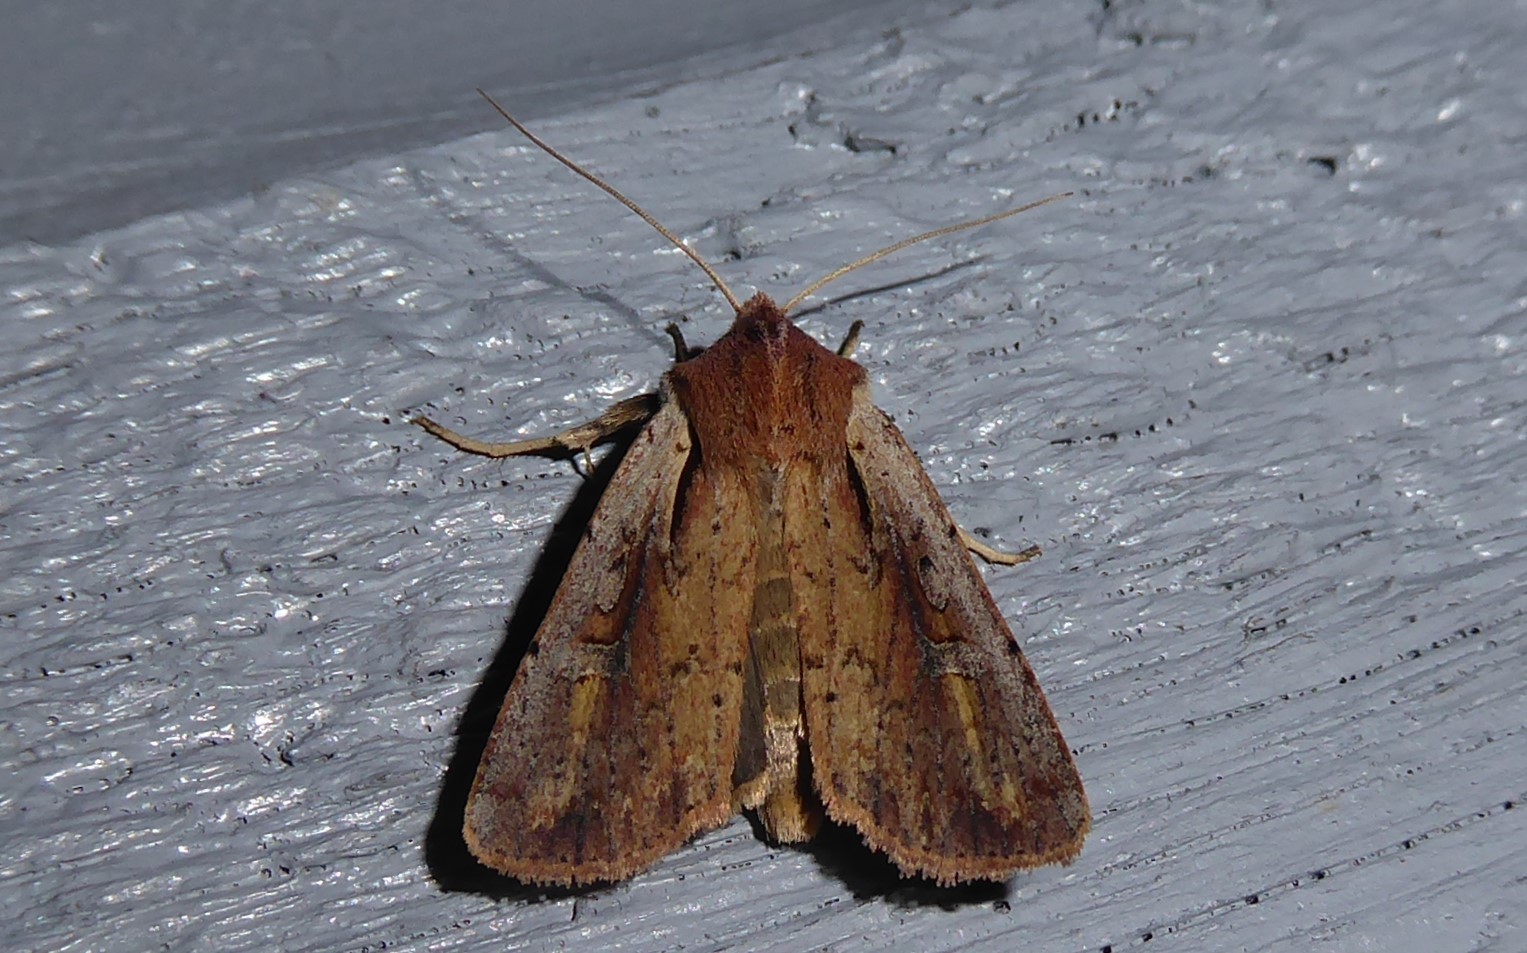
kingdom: Animalia
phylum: Arthropoda
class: Insecta
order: Lepidoptera
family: Noctuidae
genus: Ichneutica
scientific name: Ichneutica atristriga
